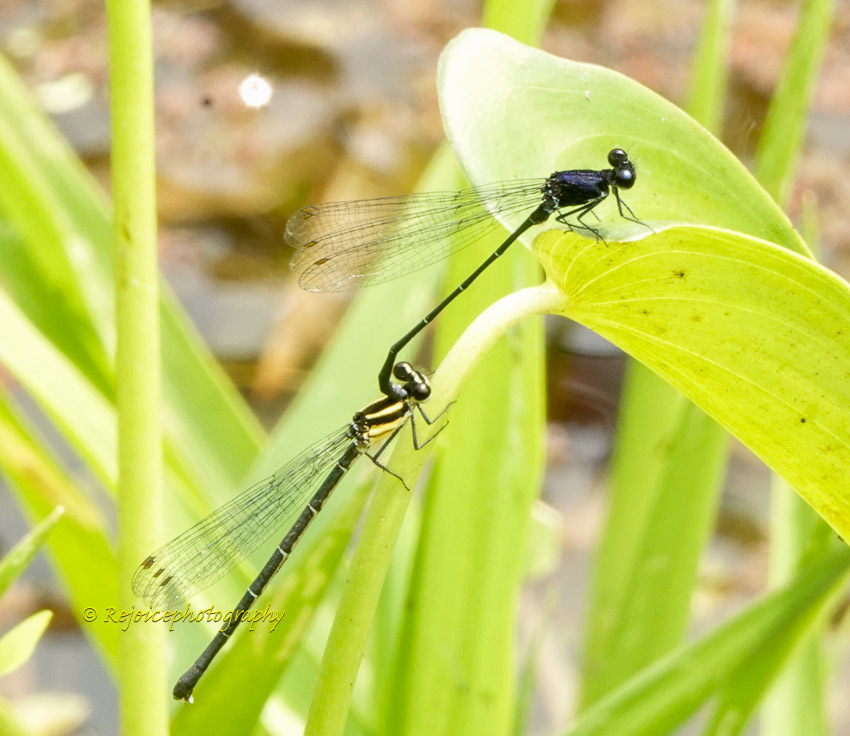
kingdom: Animalia
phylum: Arthropoda
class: Insecta
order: Odonata
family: Platycnemididae
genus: Onychargia
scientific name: Onychargia atrocyana
